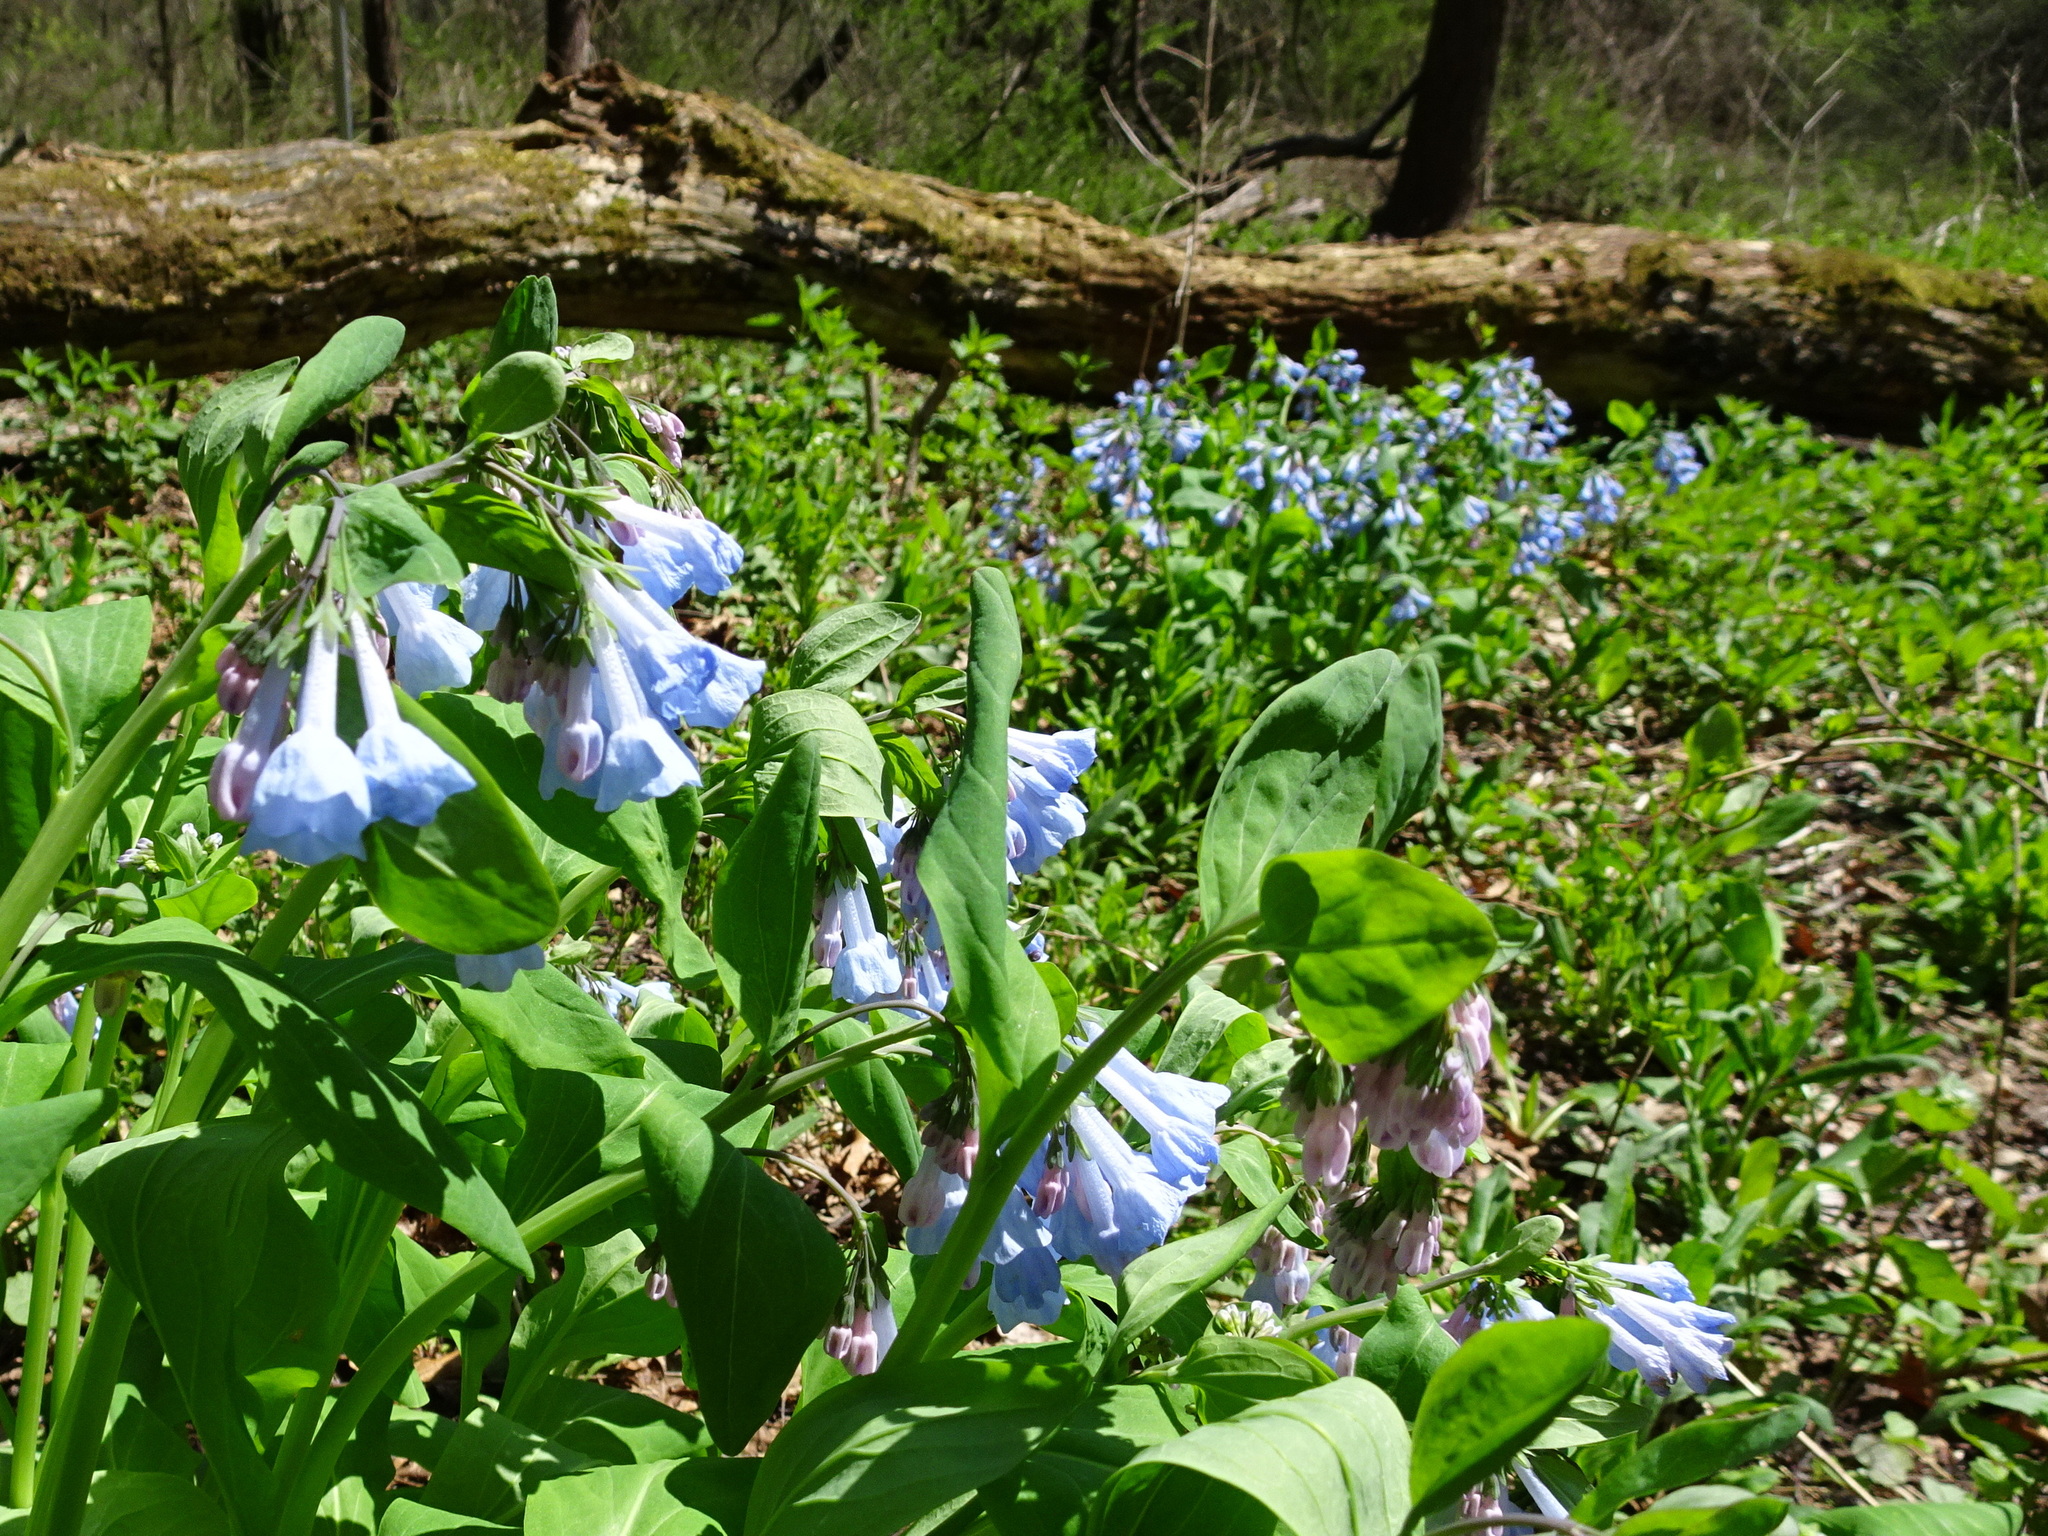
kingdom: Plantae
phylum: Tracheophyta
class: Magnoliopsida
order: Boraginales
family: Boraginaceae
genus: Mertensia
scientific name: Mertensia virginica
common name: Virginia bluebells
